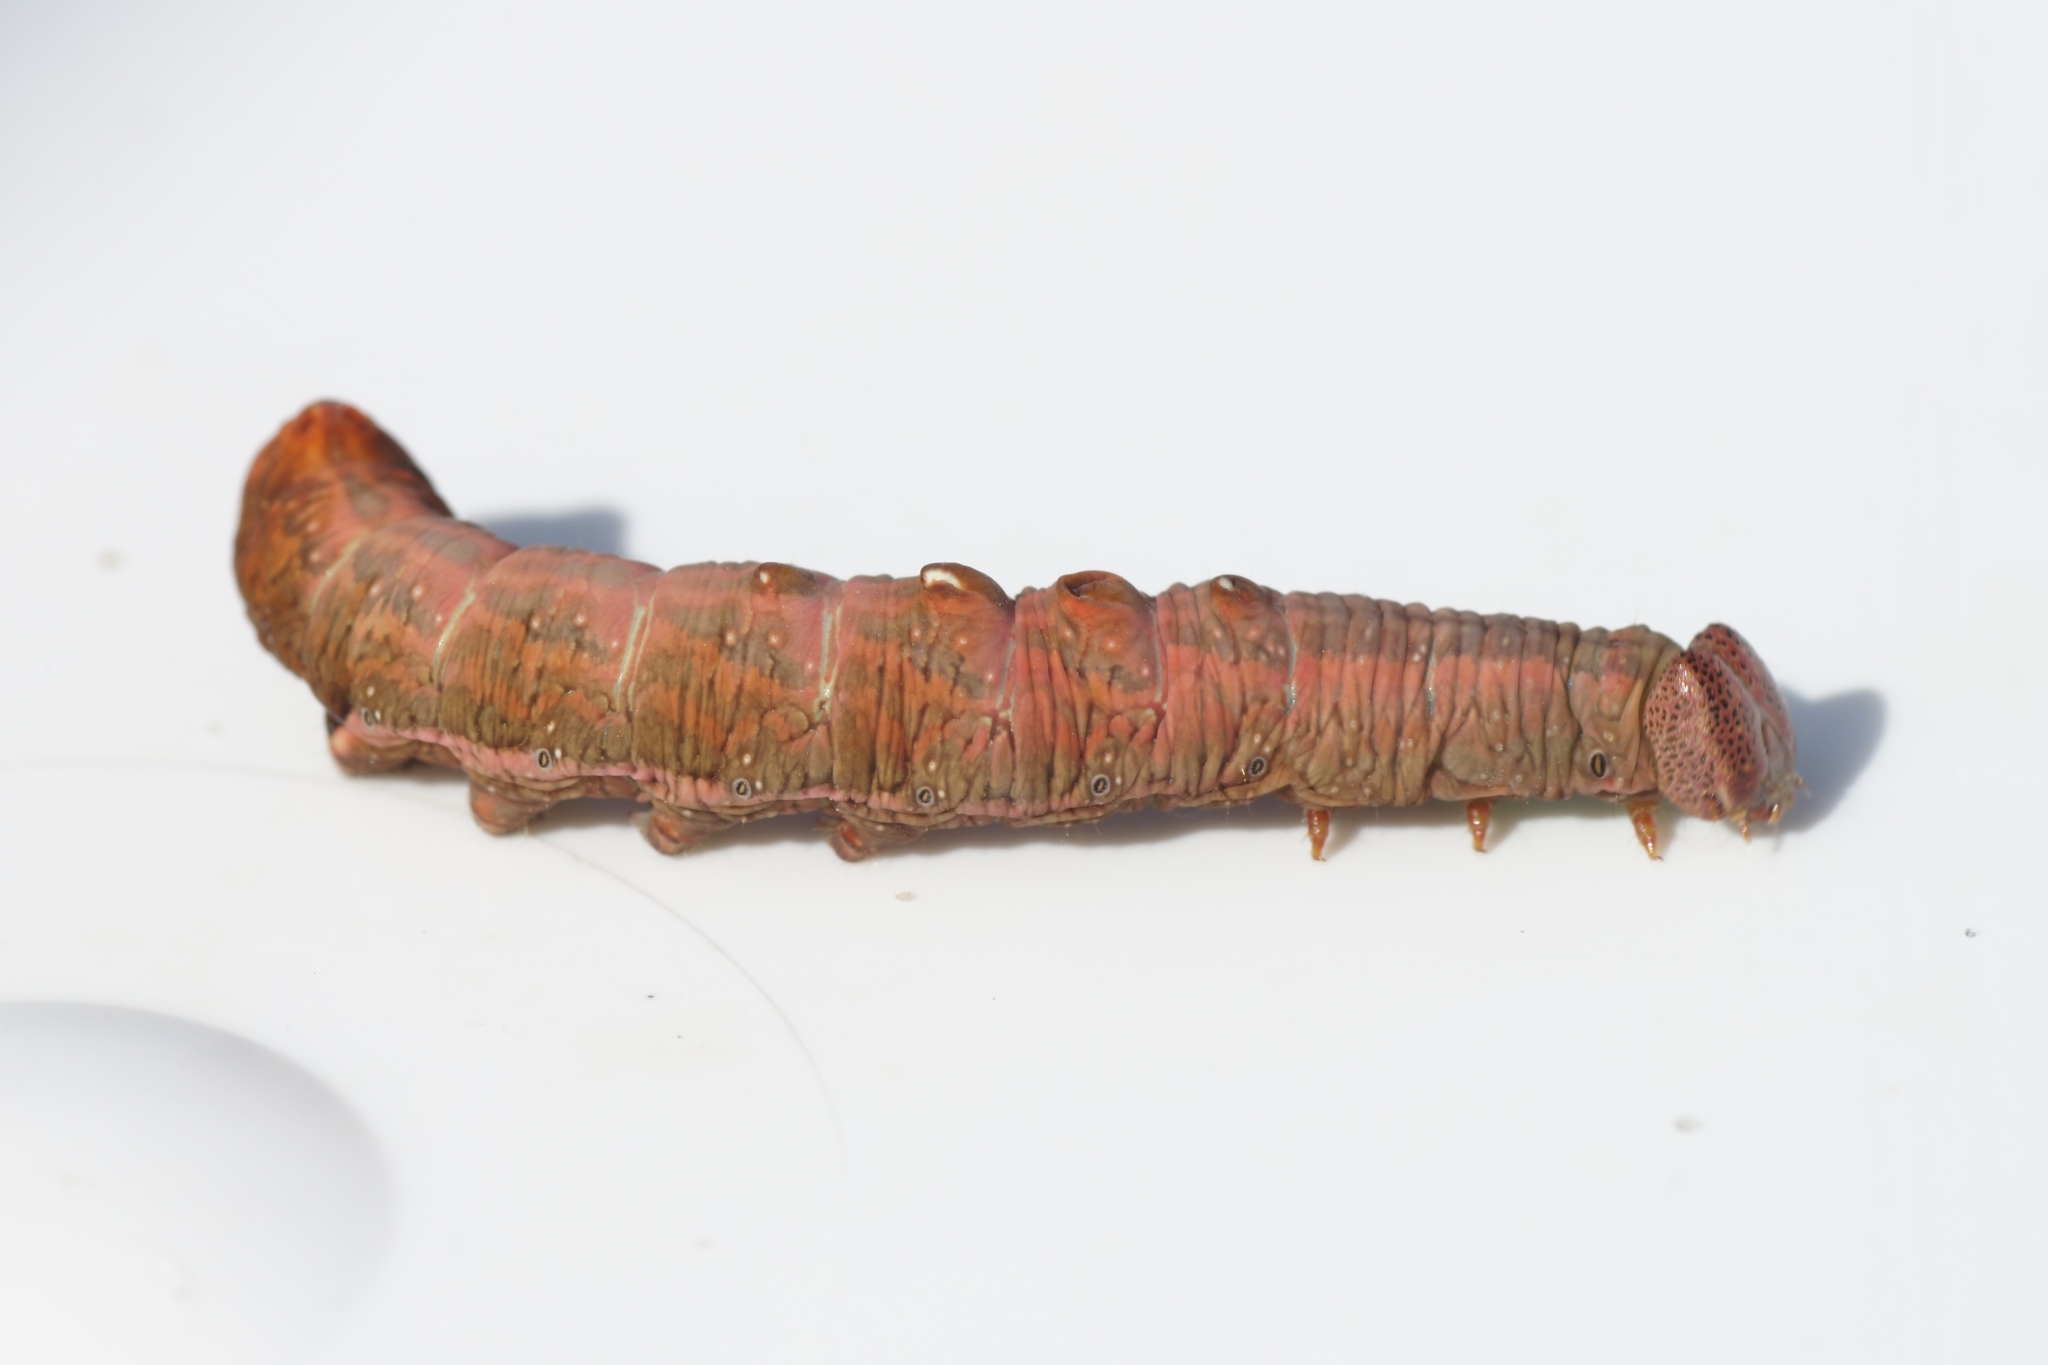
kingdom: Animalia
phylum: Arthropoda
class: Insecta
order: Lepidoptera
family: Notodontidae
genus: Notodonta
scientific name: Notodonta dromedarius
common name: Iron prominent
